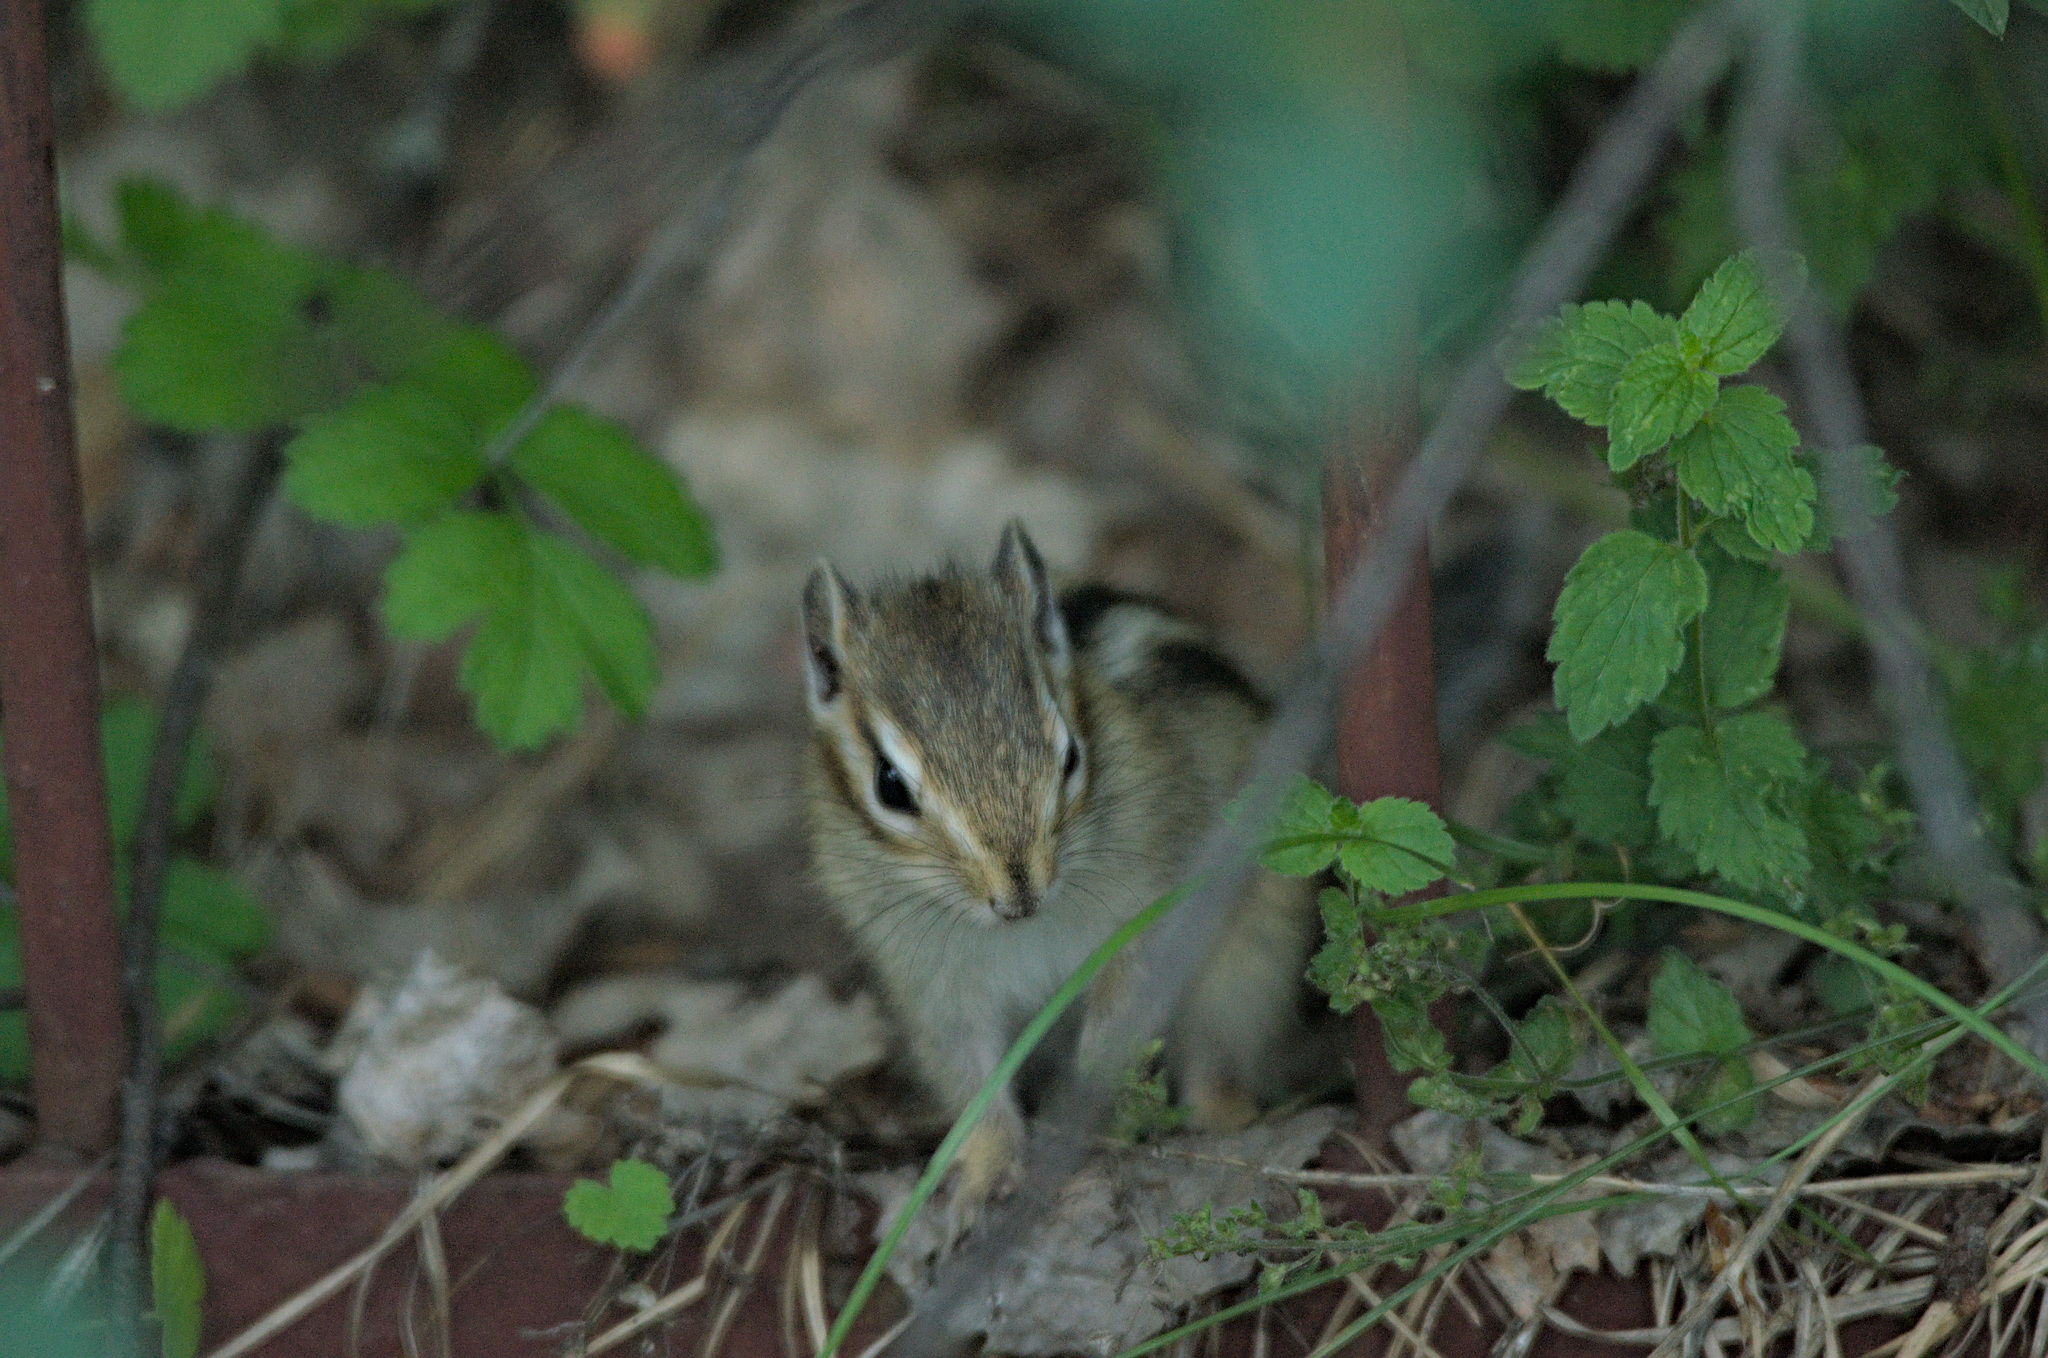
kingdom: Animalia
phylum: Chordata
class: Mammalia
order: Rodentia
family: Sciuridae
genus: Tamias
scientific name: Tamias sibiricus
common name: Siberian chipmunk
